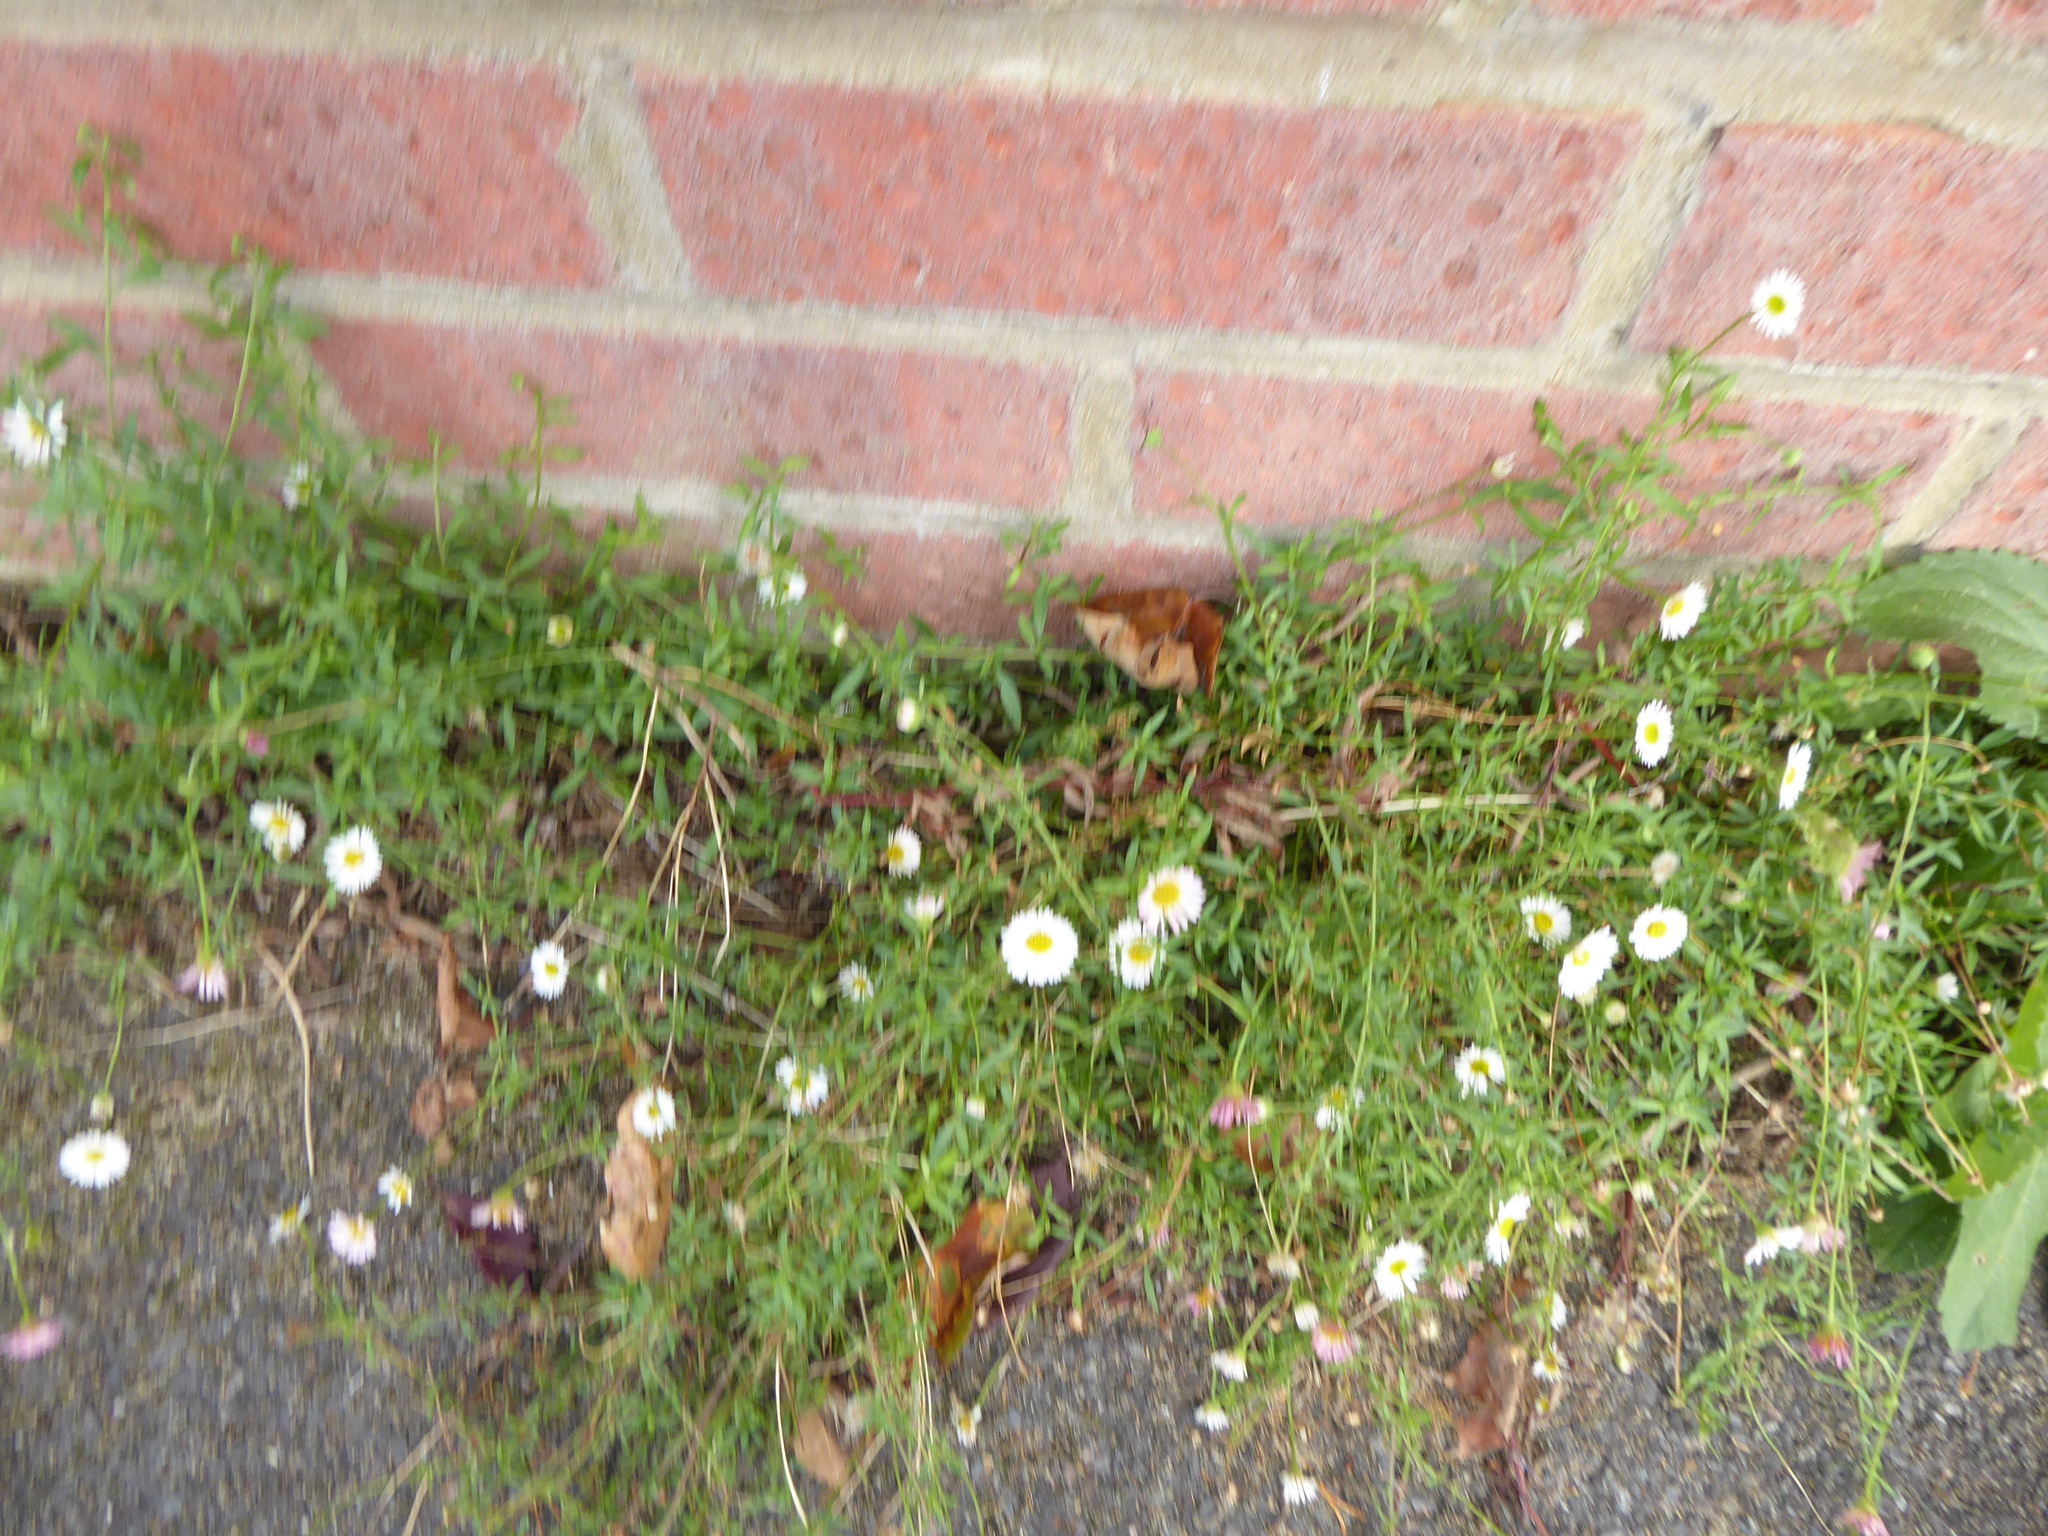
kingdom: Plantae
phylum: Tracheophyta
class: Magnoliopsida
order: Asterales
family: Asteraceae
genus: Erigeron
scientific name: Erigeron karvinskianus
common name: Mexican fleabane
